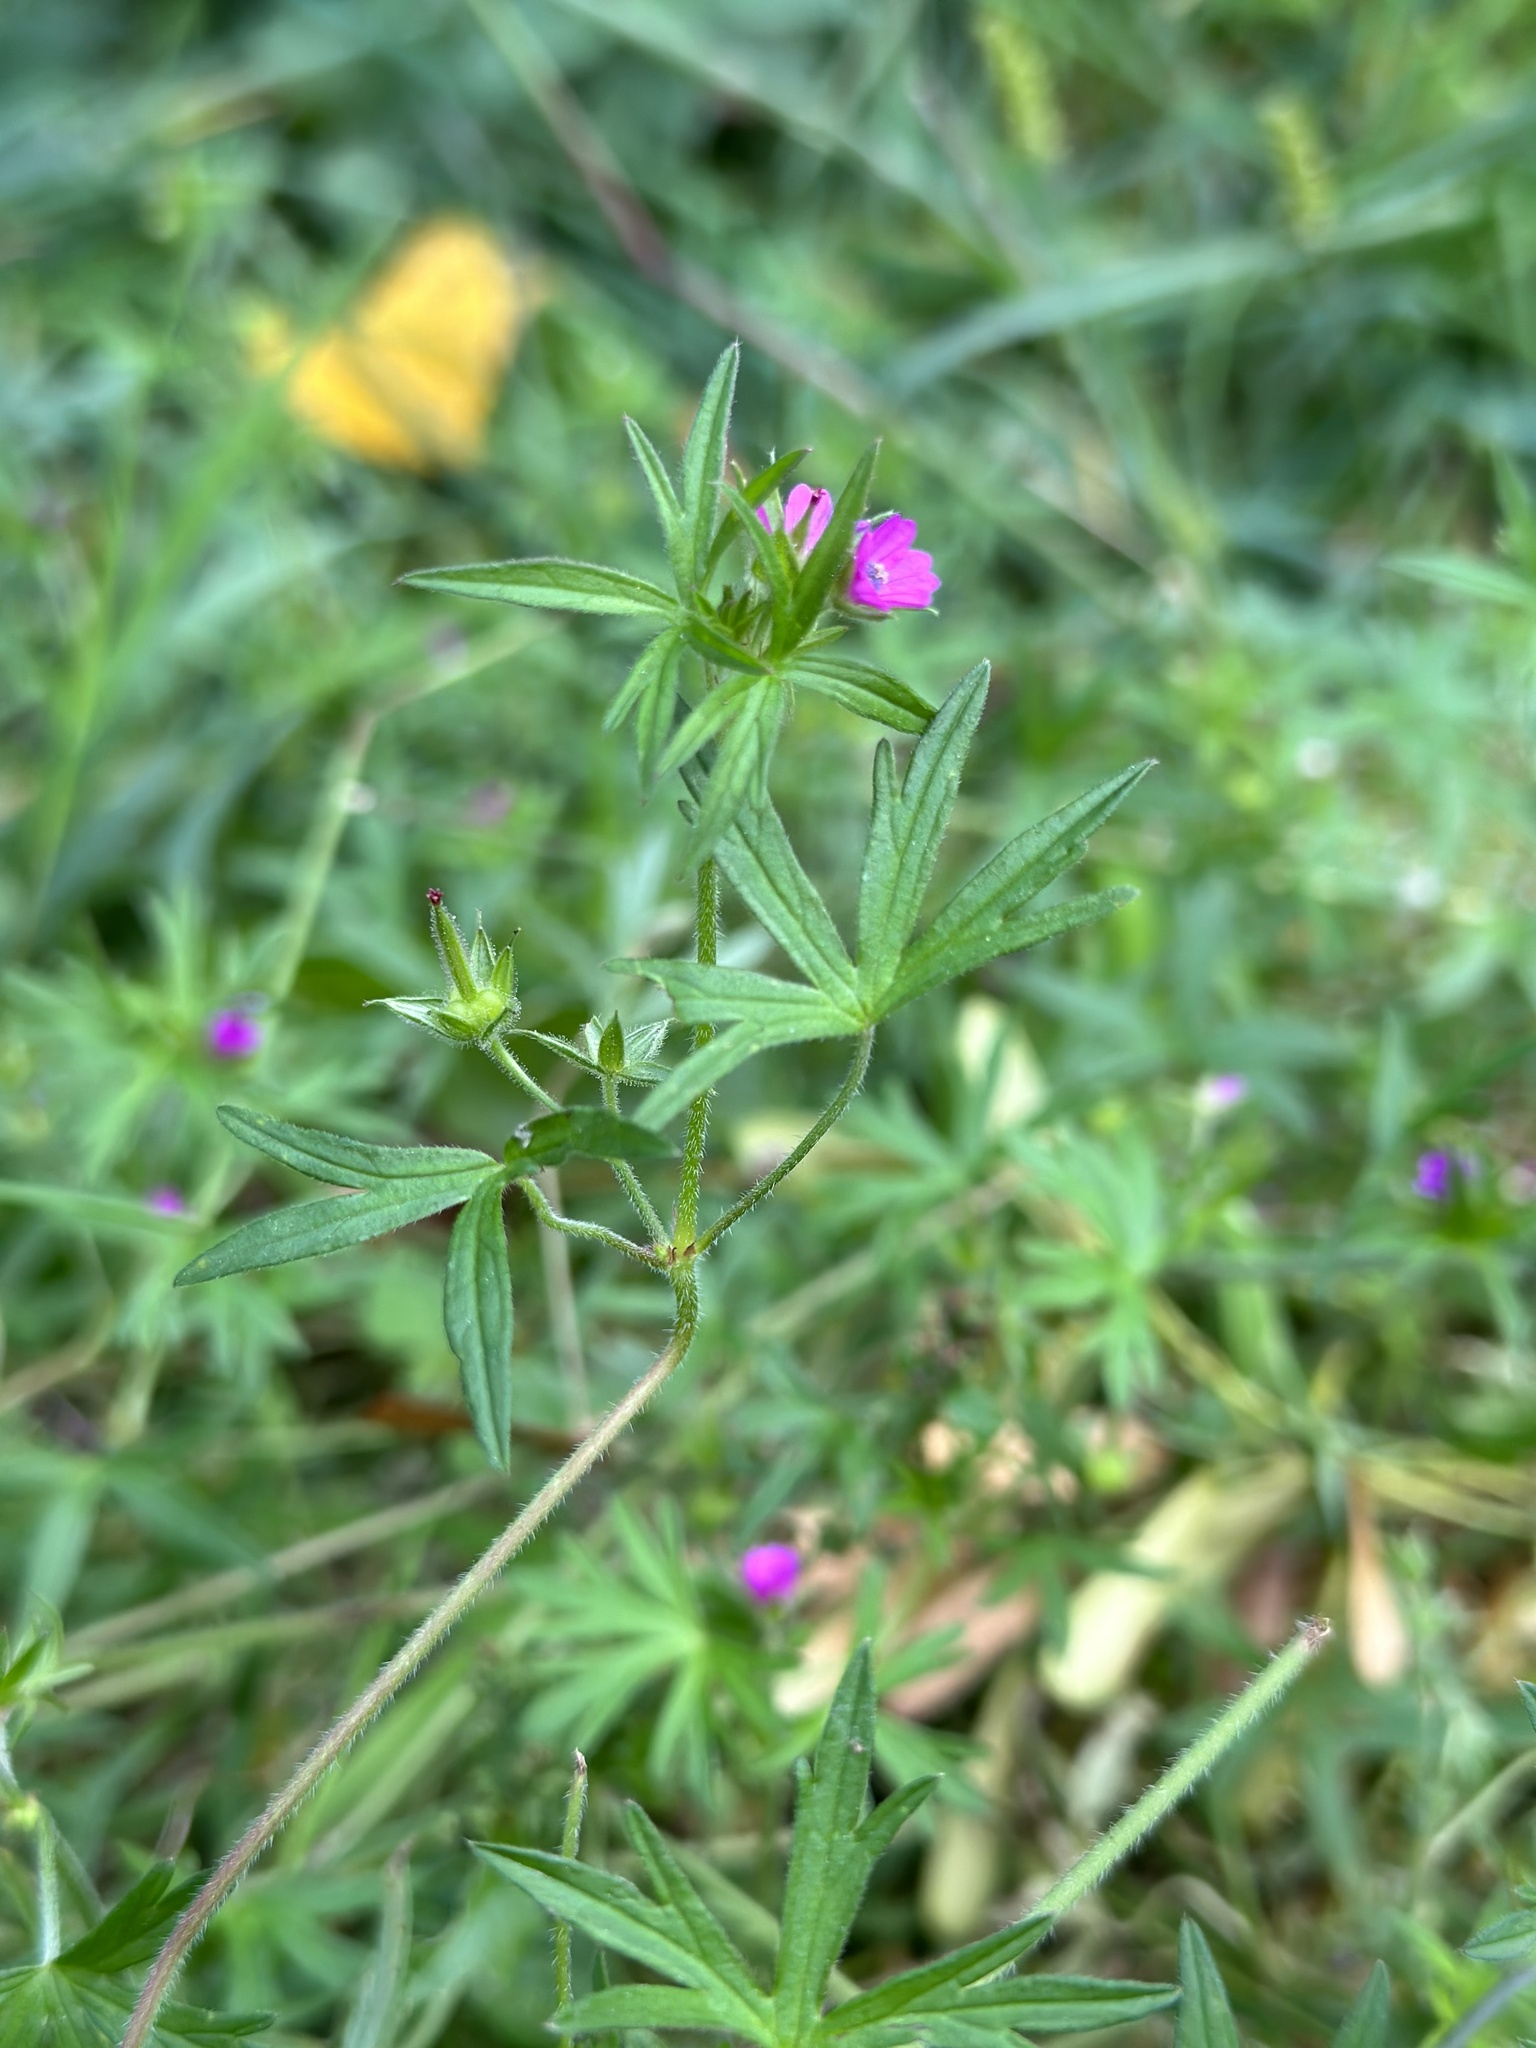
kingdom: Plantae
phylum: Tracheophyta
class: Magnoliopsida
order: Geraniales
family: Geraniaceae
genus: Geranium
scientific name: Geranium dissectum
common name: Cut-leaved crane's-bill
